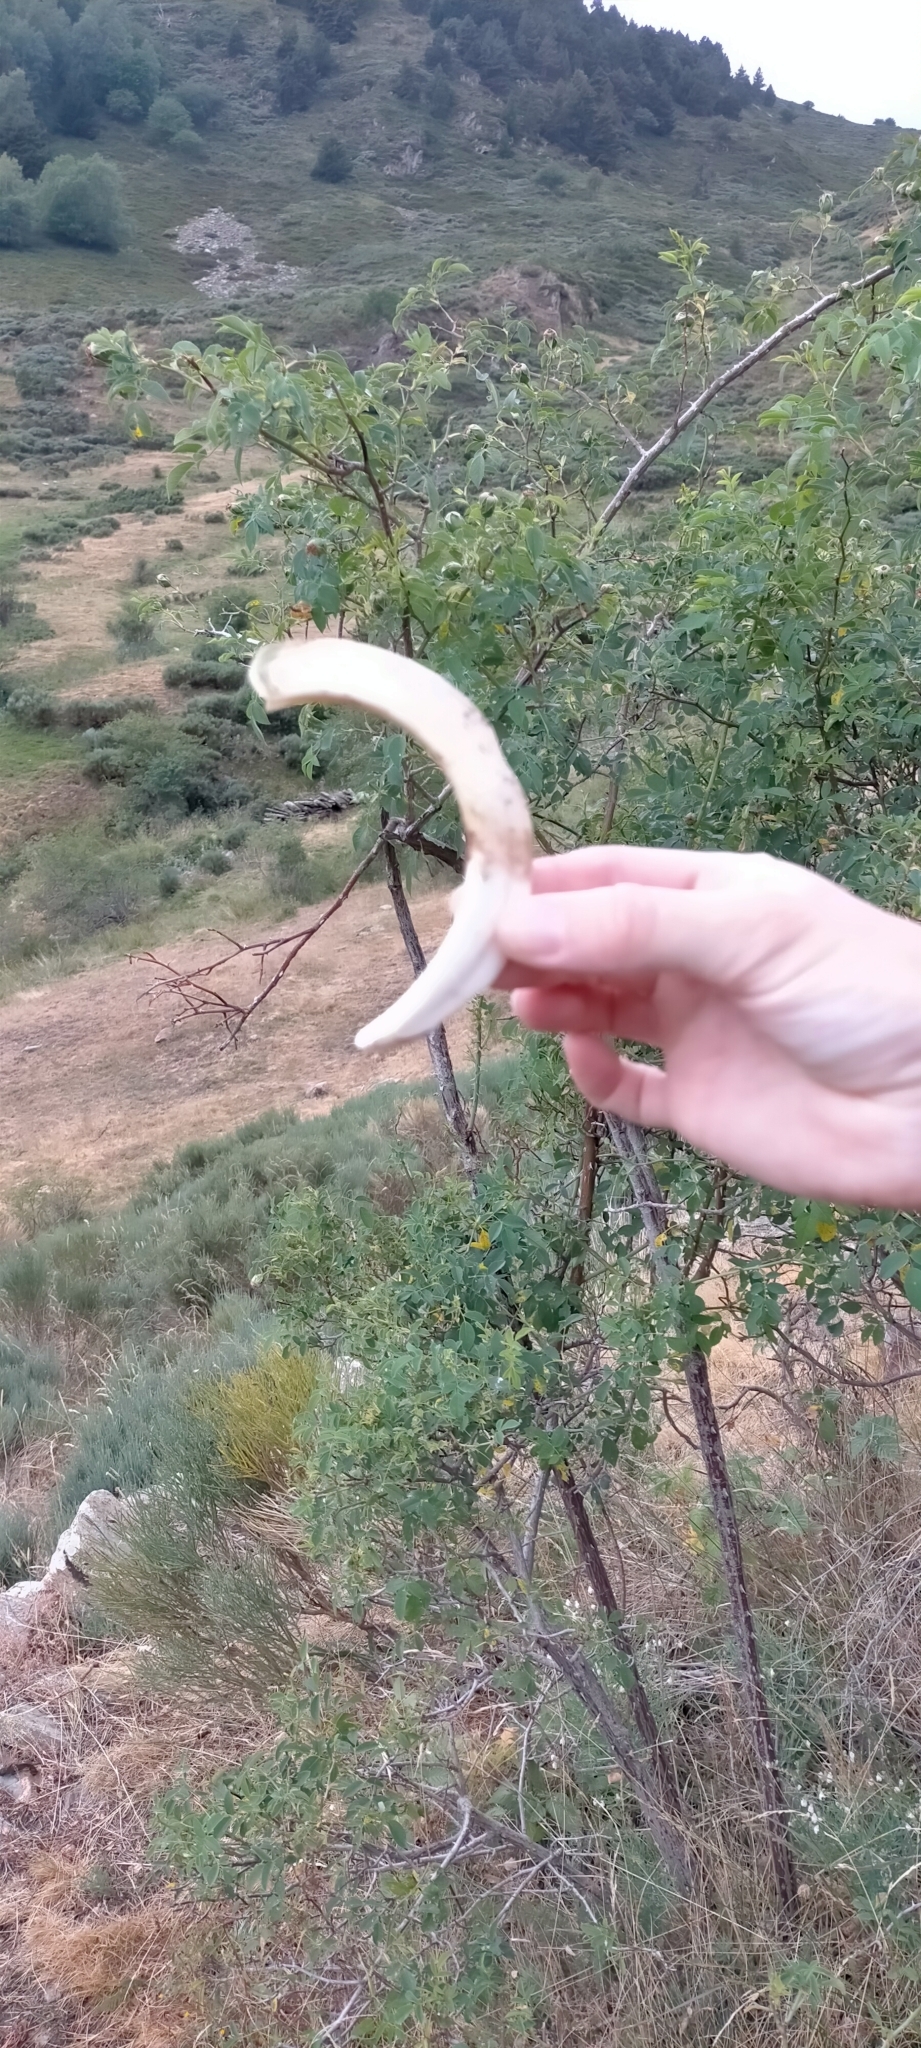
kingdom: Animalia
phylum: Chordata
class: Mammalia
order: Artiodactyla
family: Suidae
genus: Sus
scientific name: Sus scrofa
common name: Wild boar
